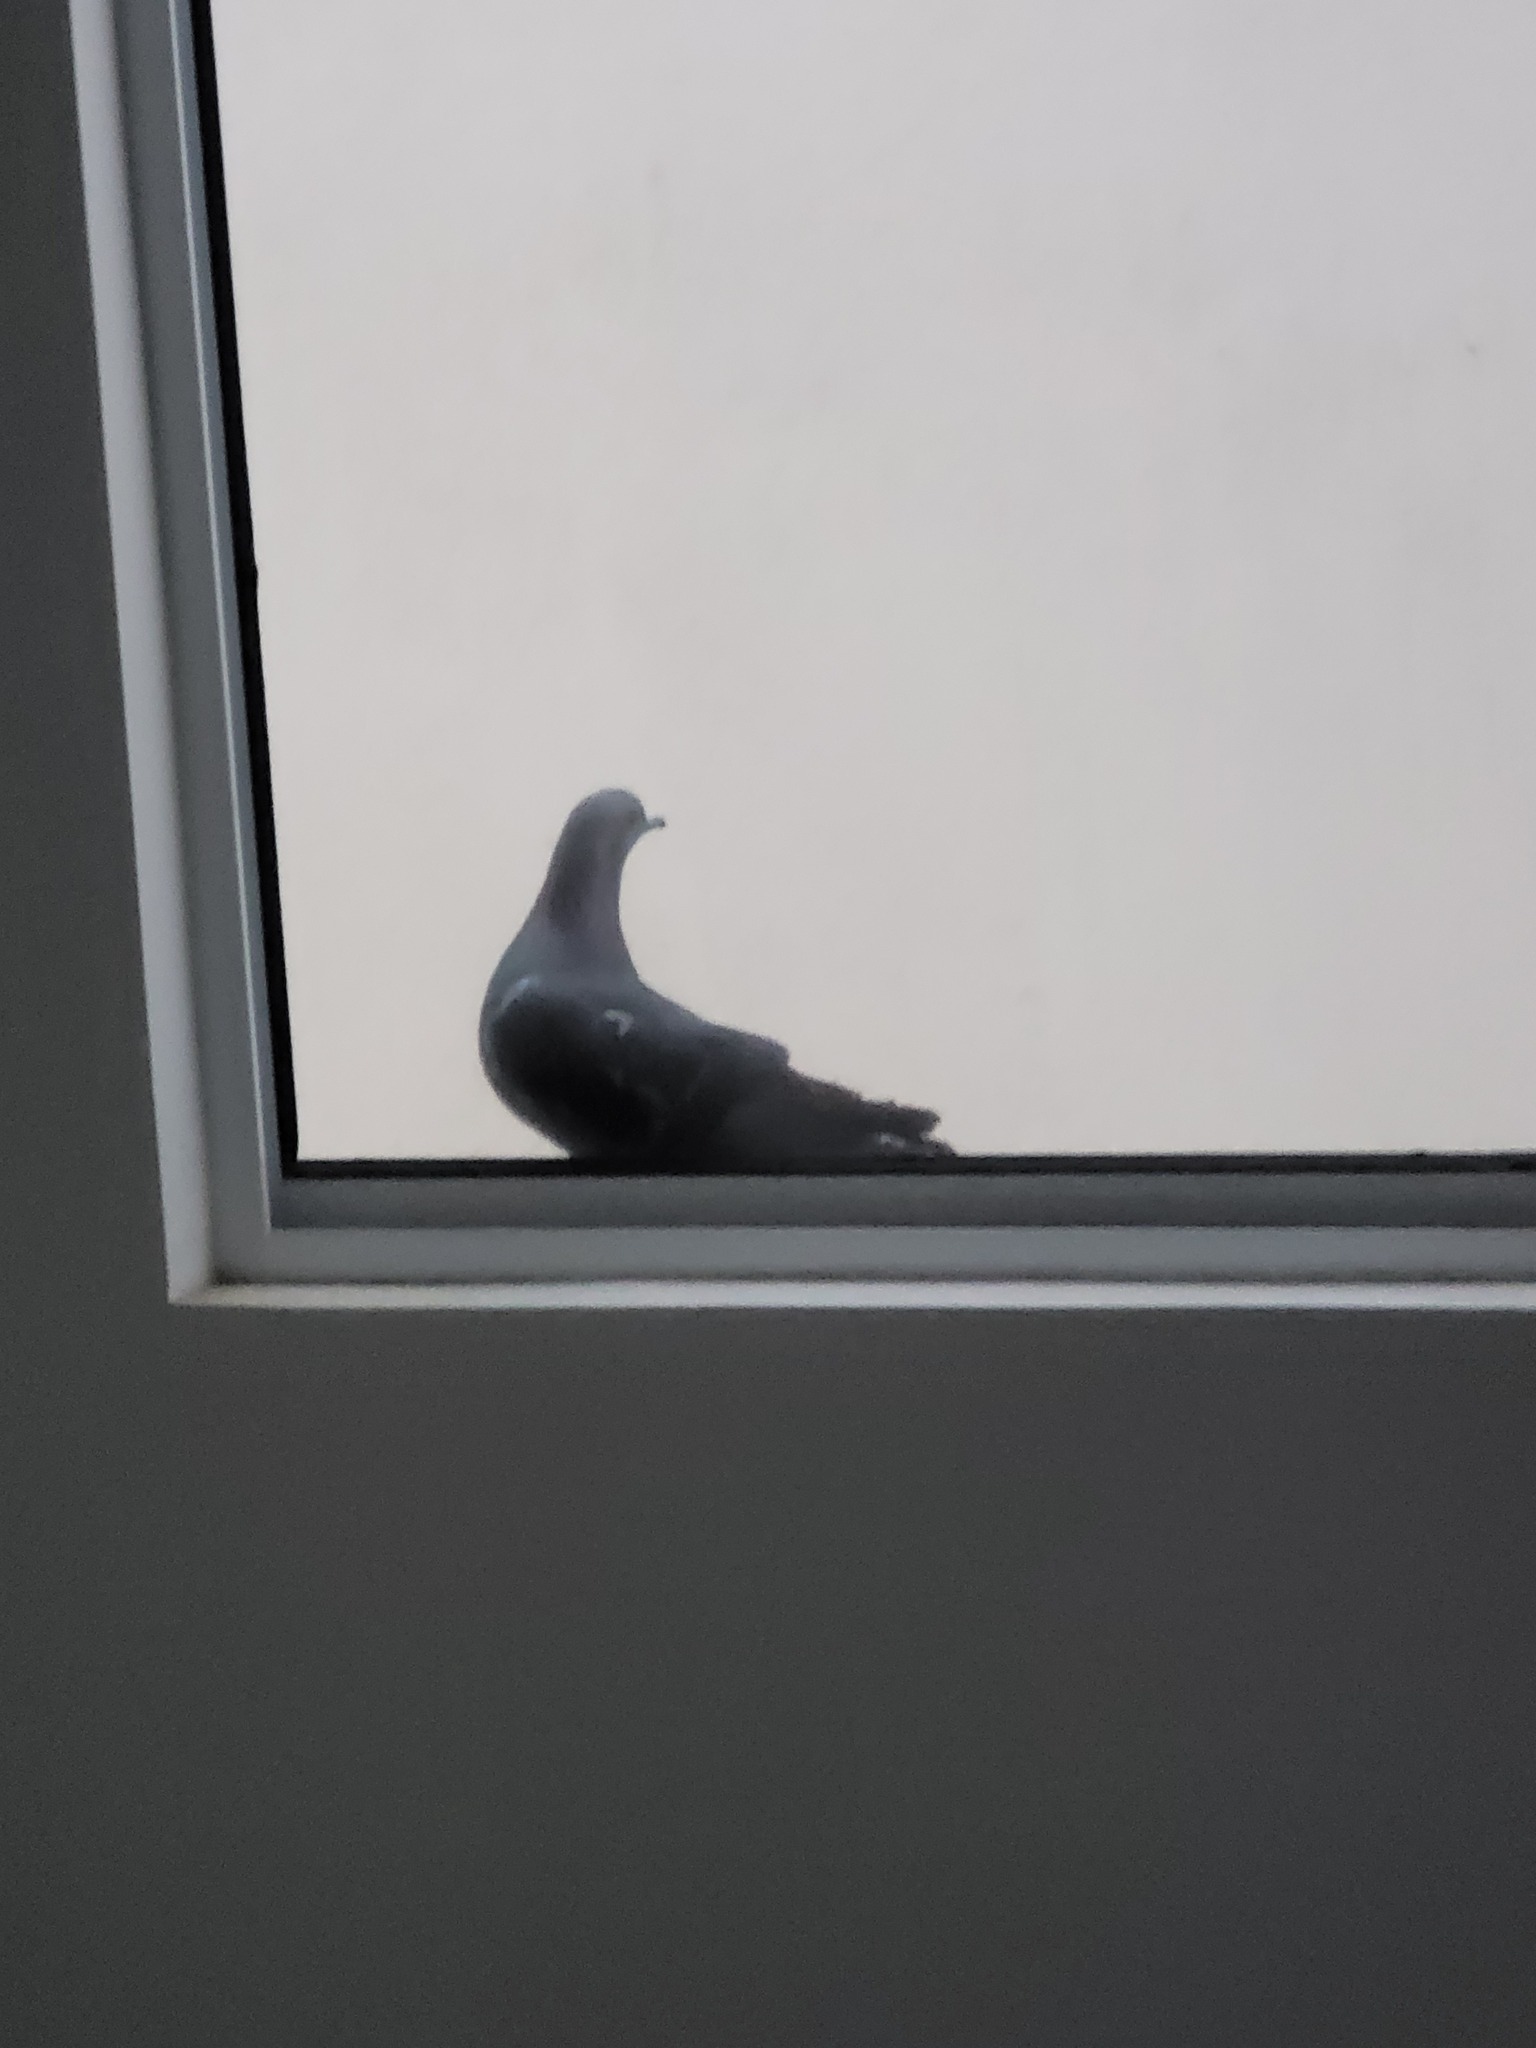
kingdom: Animalia
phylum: Chordata
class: Aves
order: Columbiformes
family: Columbidae
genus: Columba
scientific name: Columba livia
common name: Rock pigeon
